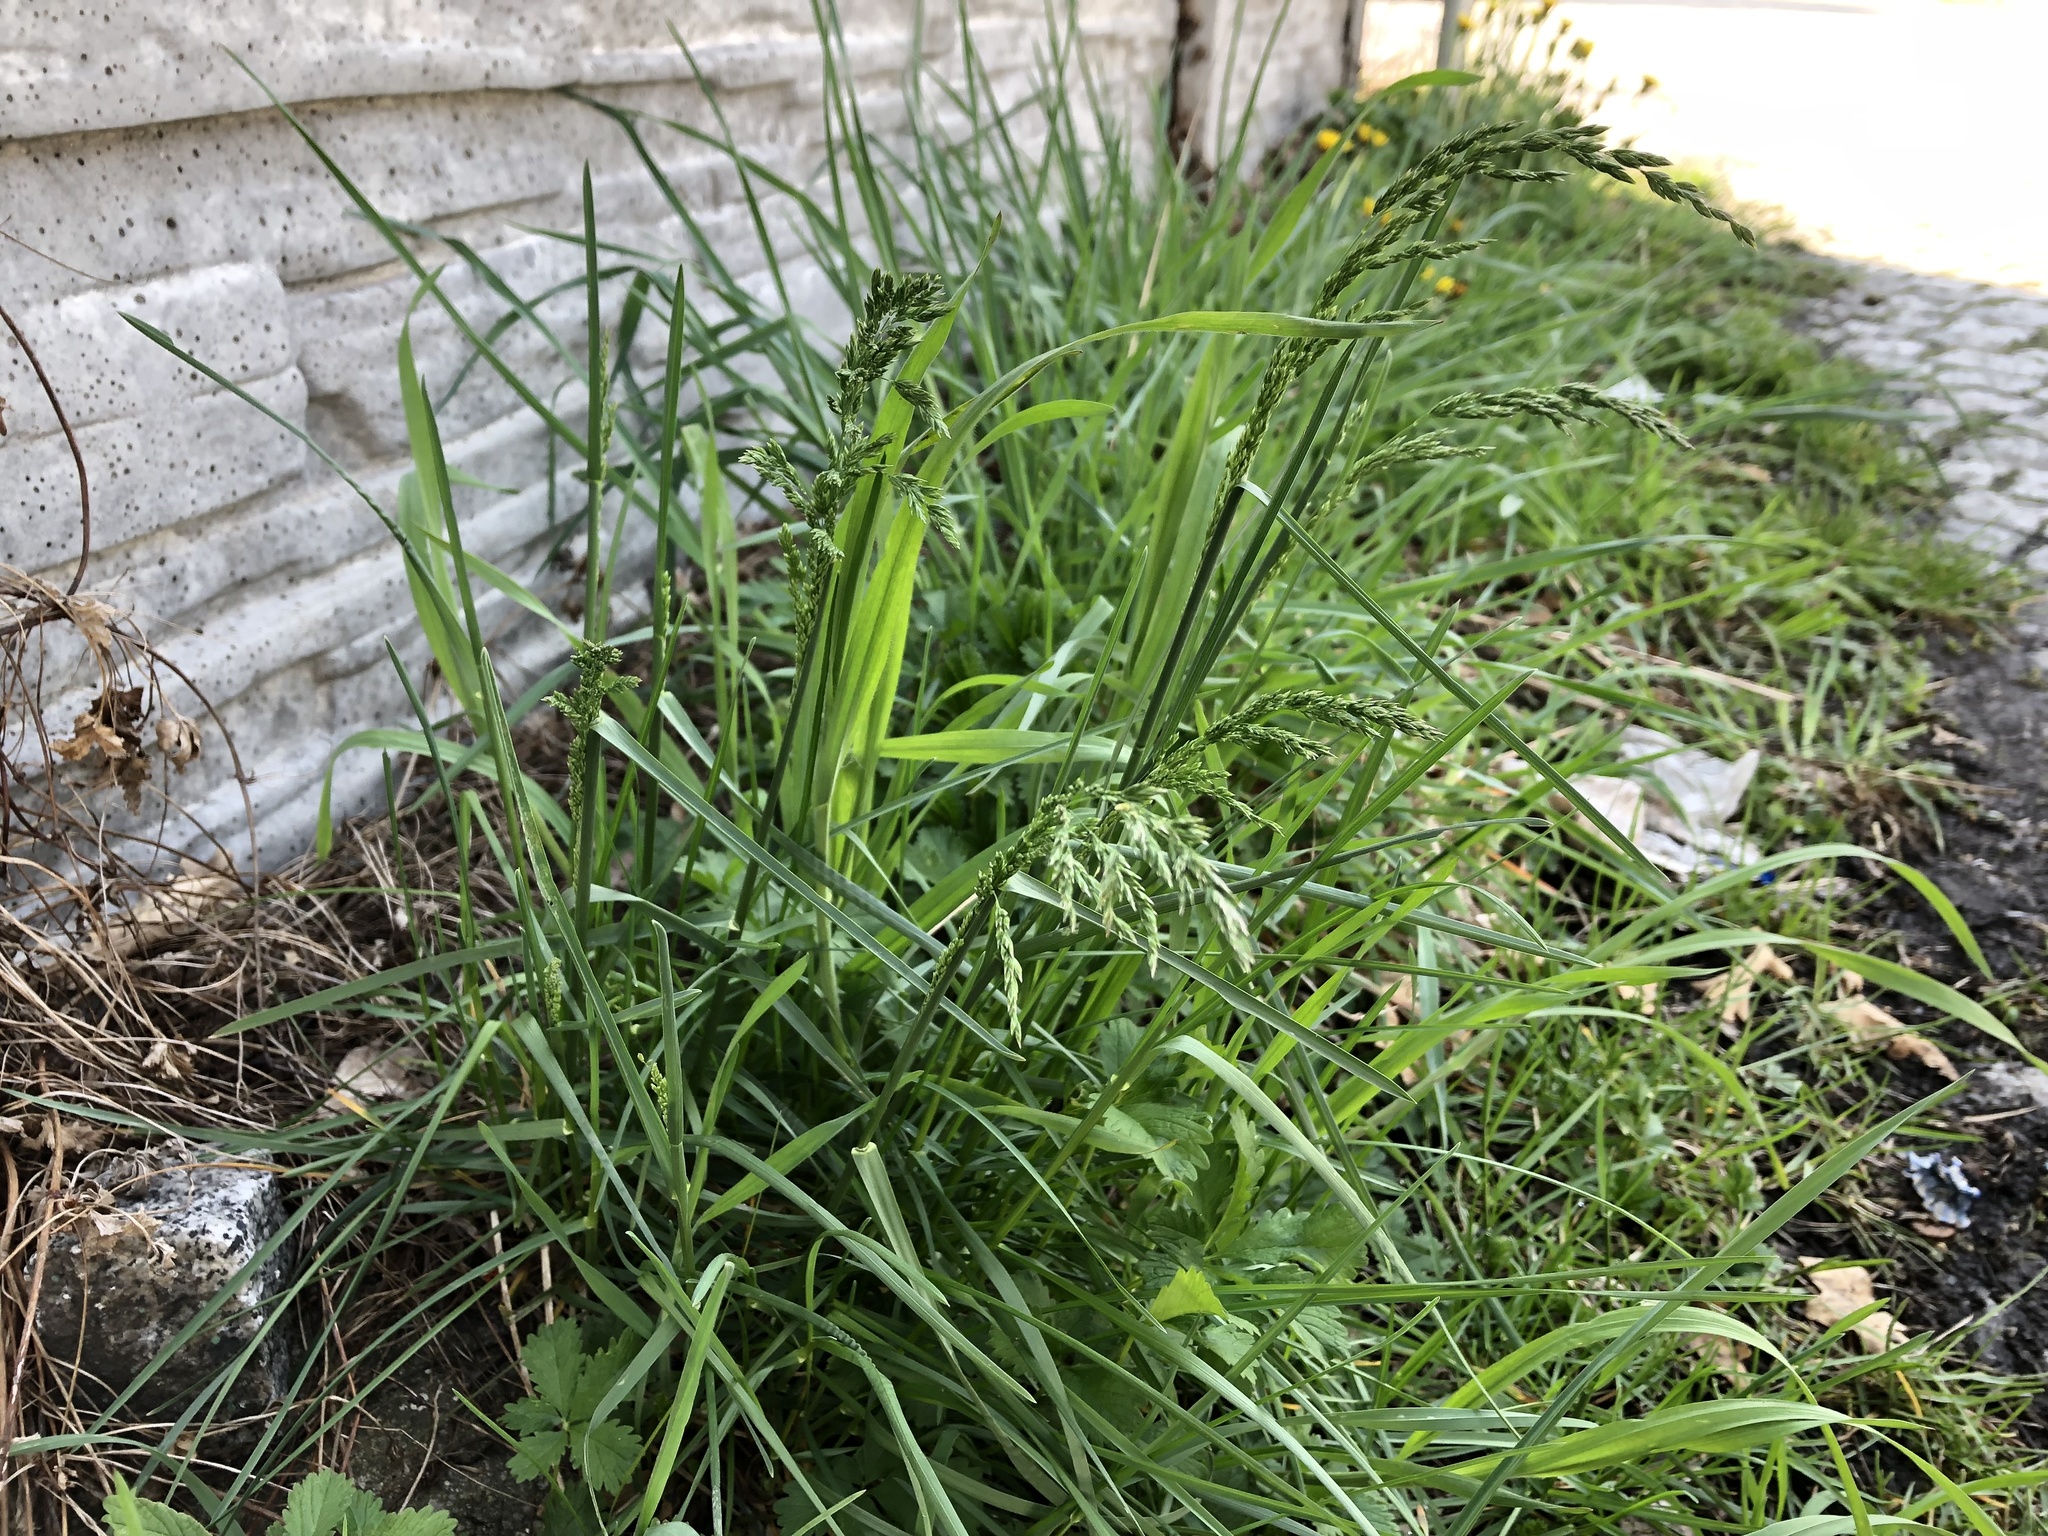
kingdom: Plantae
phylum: Tracheophyta
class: Liliopsida
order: Poales
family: Poaceae
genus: Poa
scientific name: Poa pratensis
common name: Kentucky bluegrass
